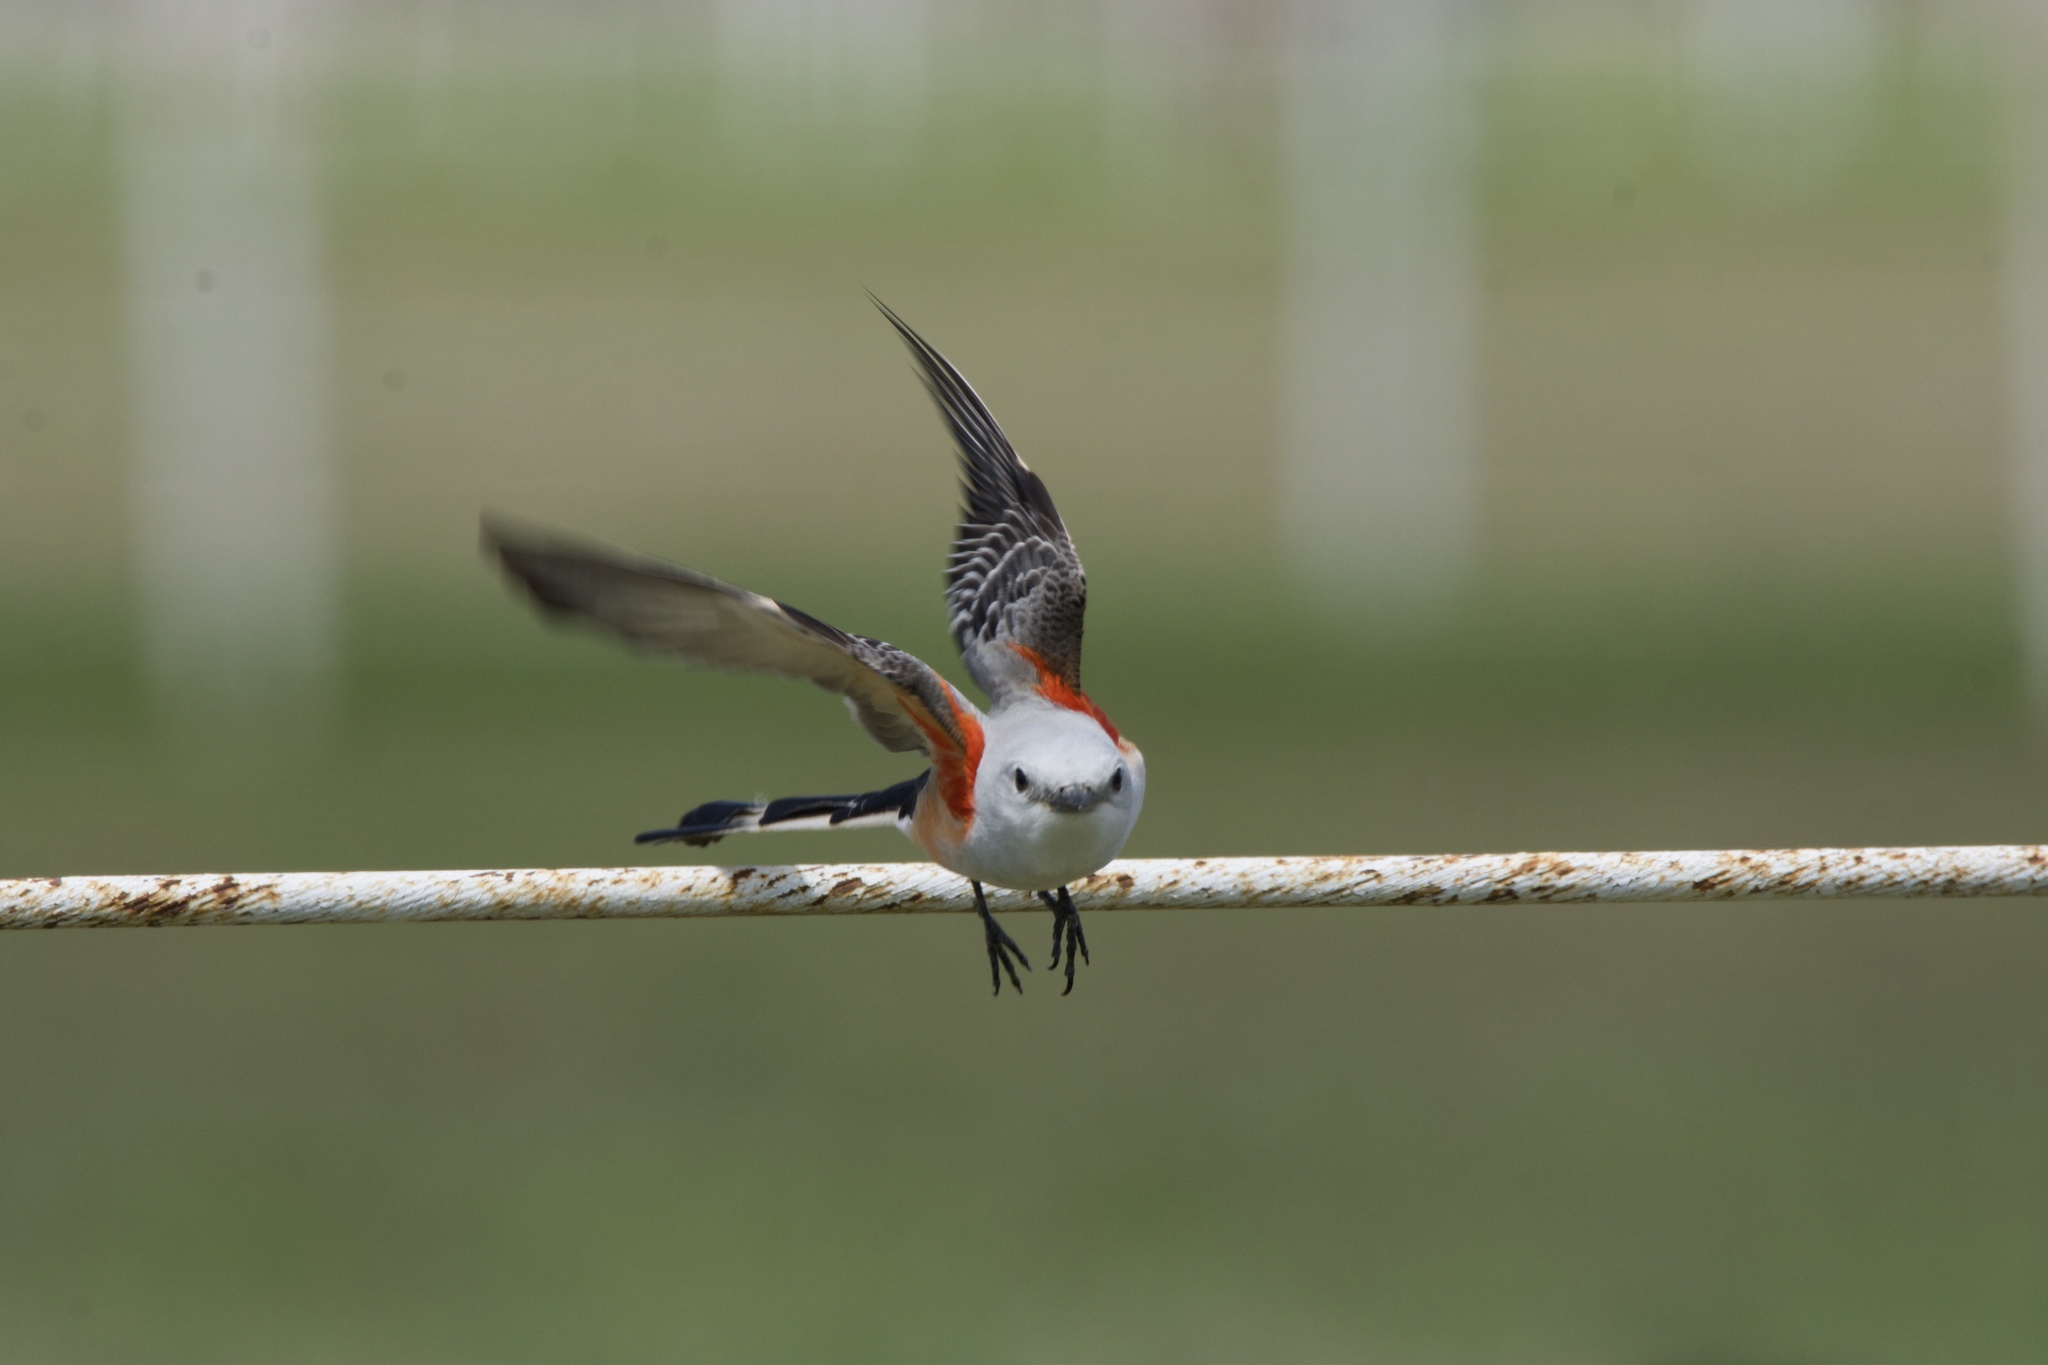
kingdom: Animalia
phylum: Chordata
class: Aves
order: Passeriformes
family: Tyrannidae
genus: Tyrannus
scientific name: Tyrannus forficatus
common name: Scissor-tailed flycatcher
